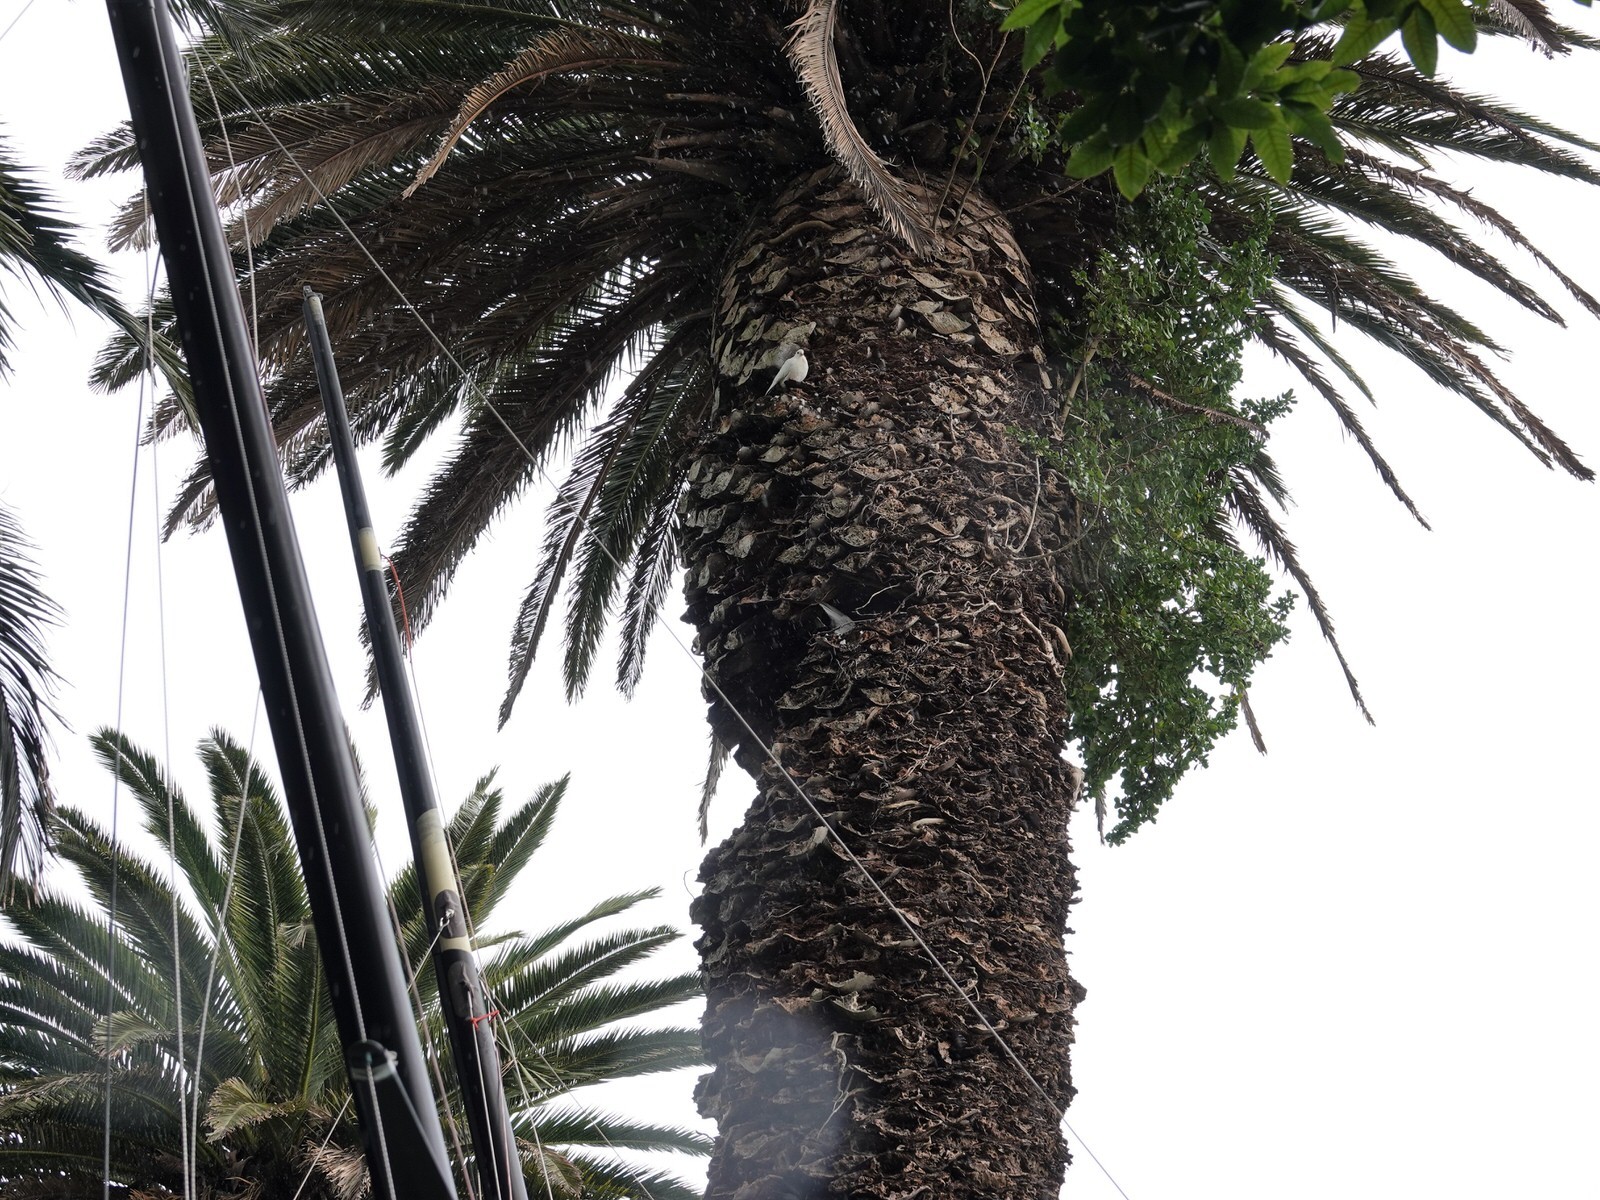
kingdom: Animalia
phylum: Chordata
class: Aves
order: Columbiformes
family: Columbidae
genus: Columba
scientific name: Columba livia
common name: Rock pigeon
